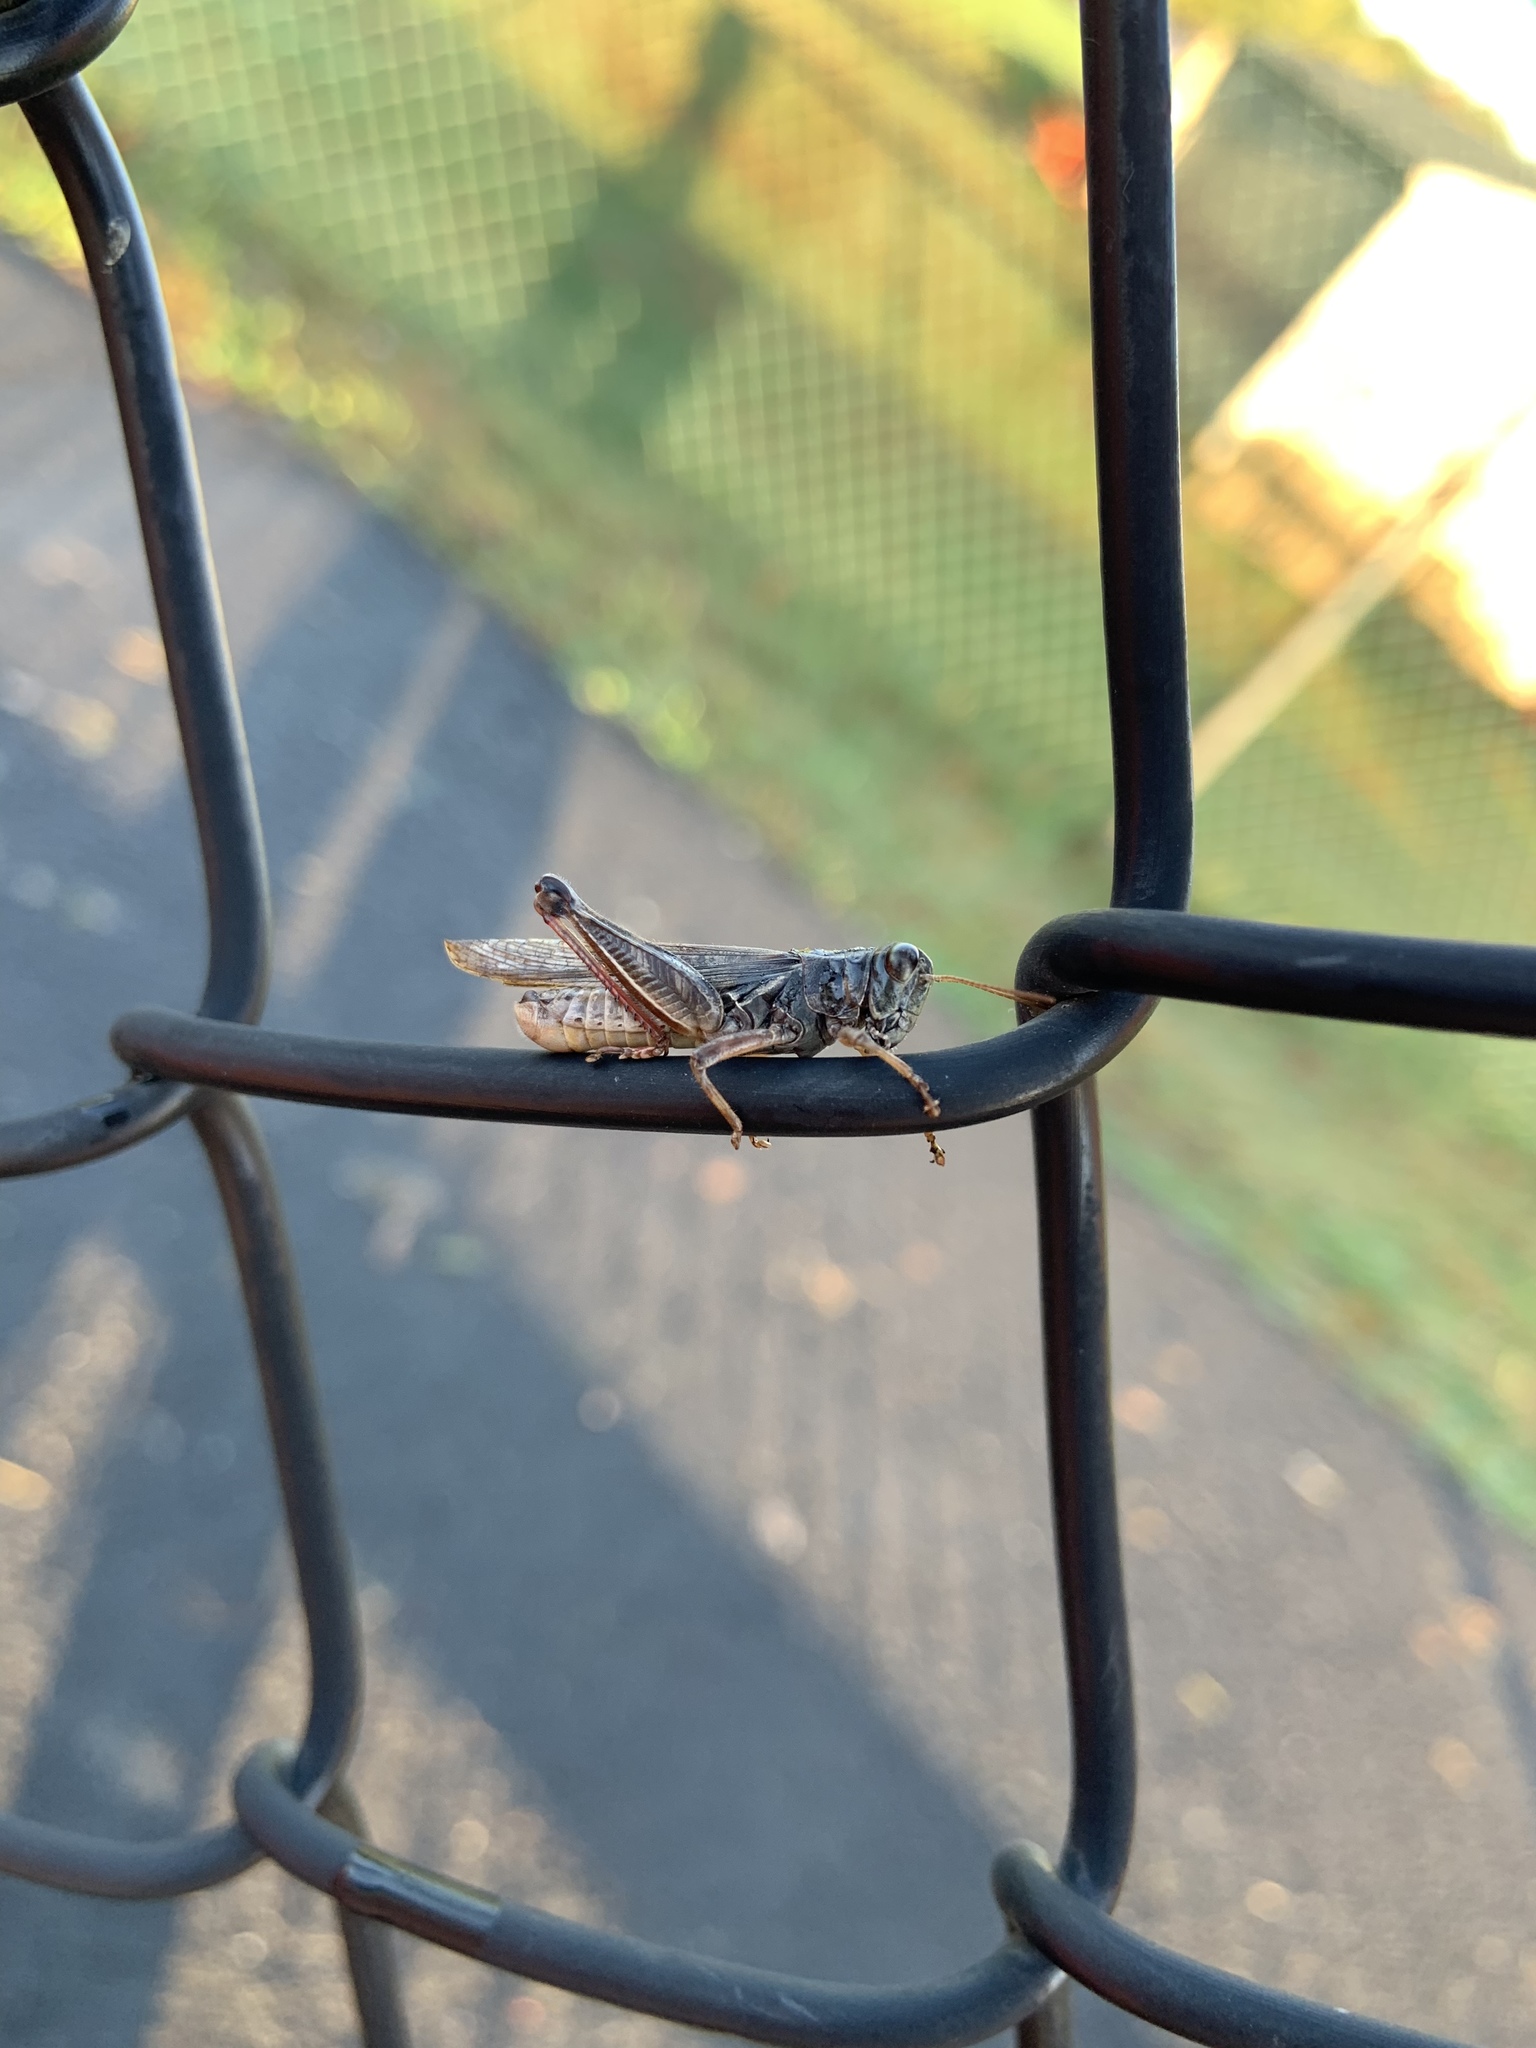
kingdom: Animalia
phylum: Arthropoda
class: Insecta
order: Orthoptera
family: Acrididae
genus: Melanoplus
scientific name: Melanoplus sanguinipes
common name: Migratory grasshopper
